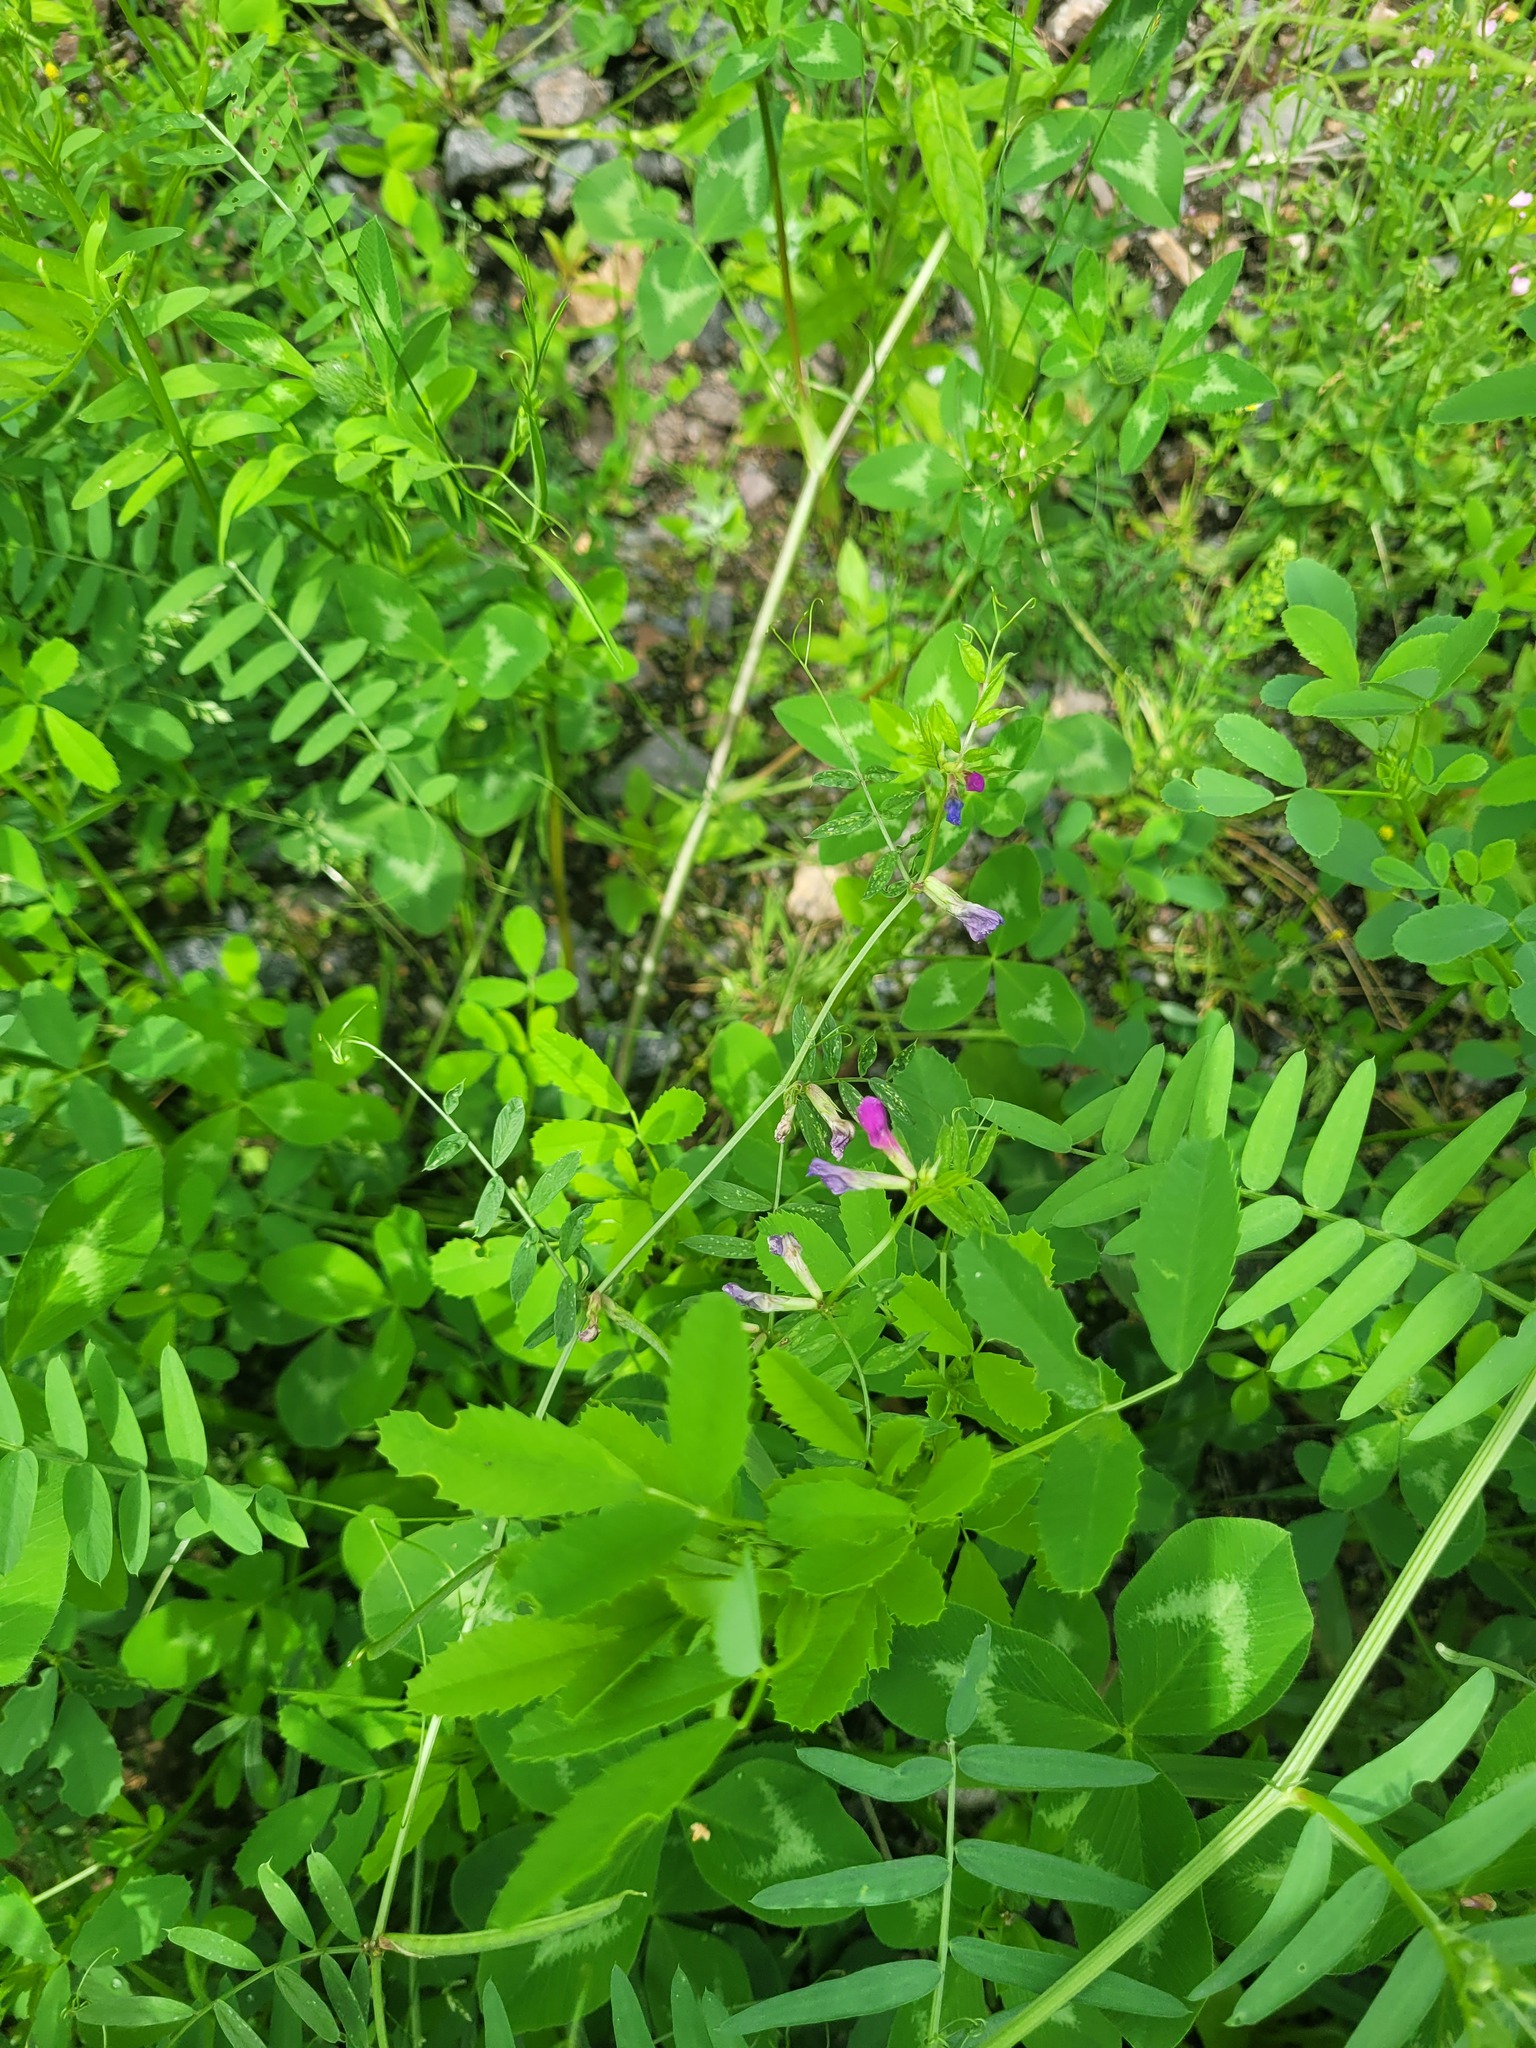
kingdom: Plantae
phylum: Tracheophyta
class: Magnoliopsida
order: Fabales
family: Fabaceae
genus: Vicia
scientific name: Vicia sativa
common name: Garden vetch
